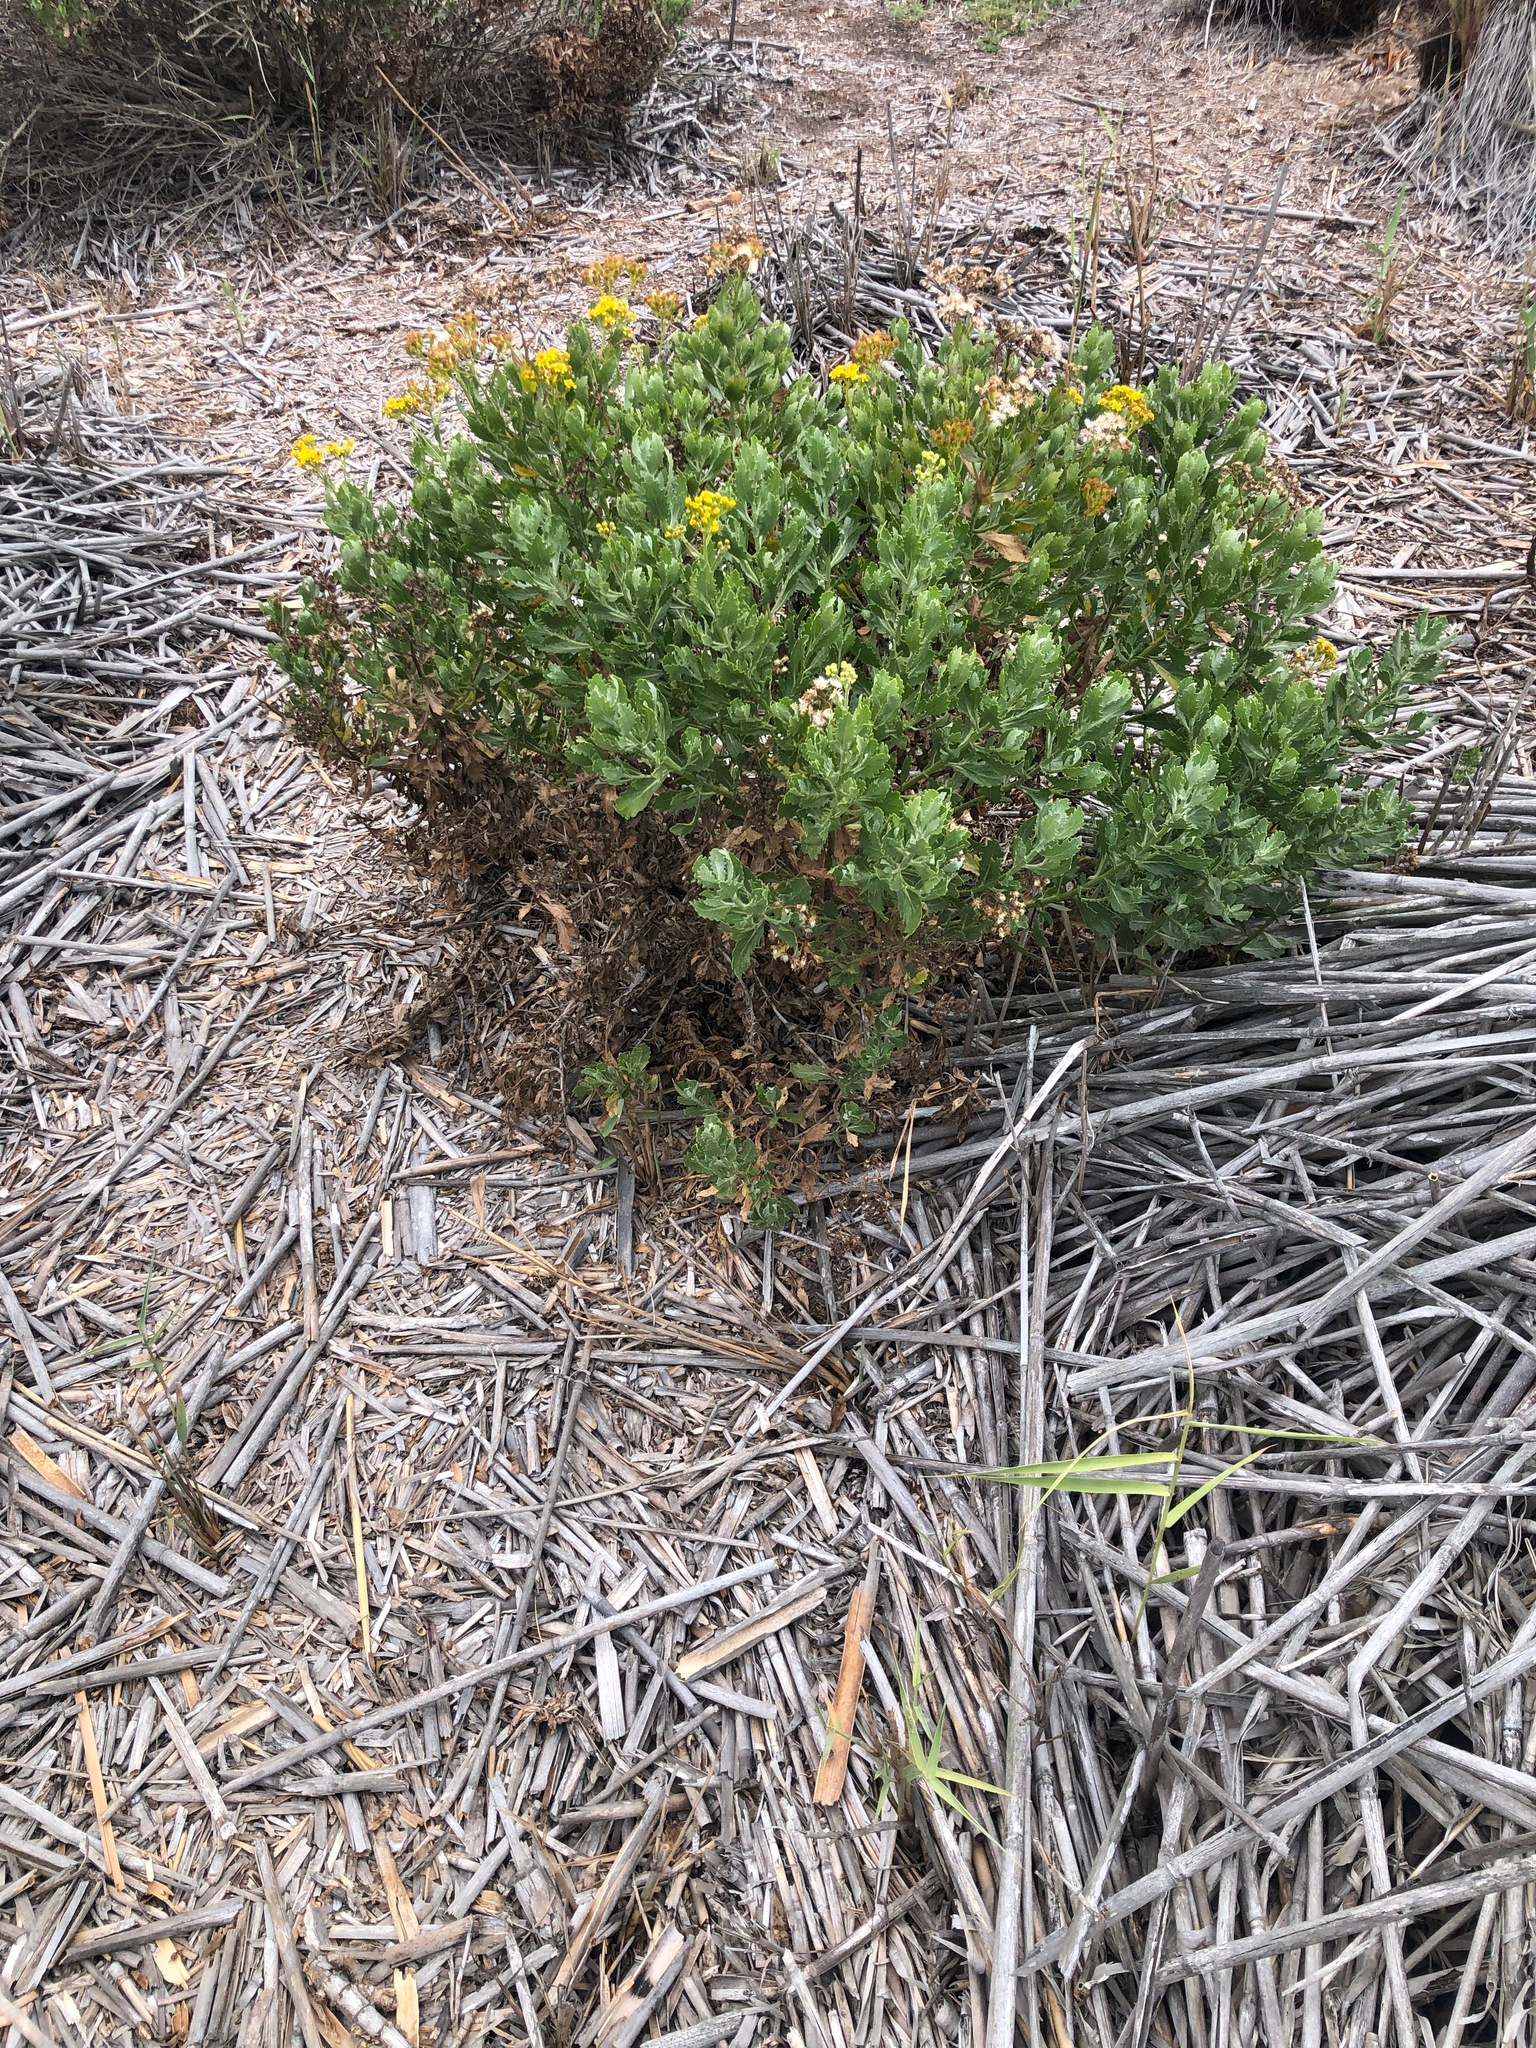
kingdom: Plantae
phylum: Tracheophyta
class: Magnoliopsida
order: Asterales
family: Asteraceae
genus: Senecio
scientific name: Senecio halimifolius
